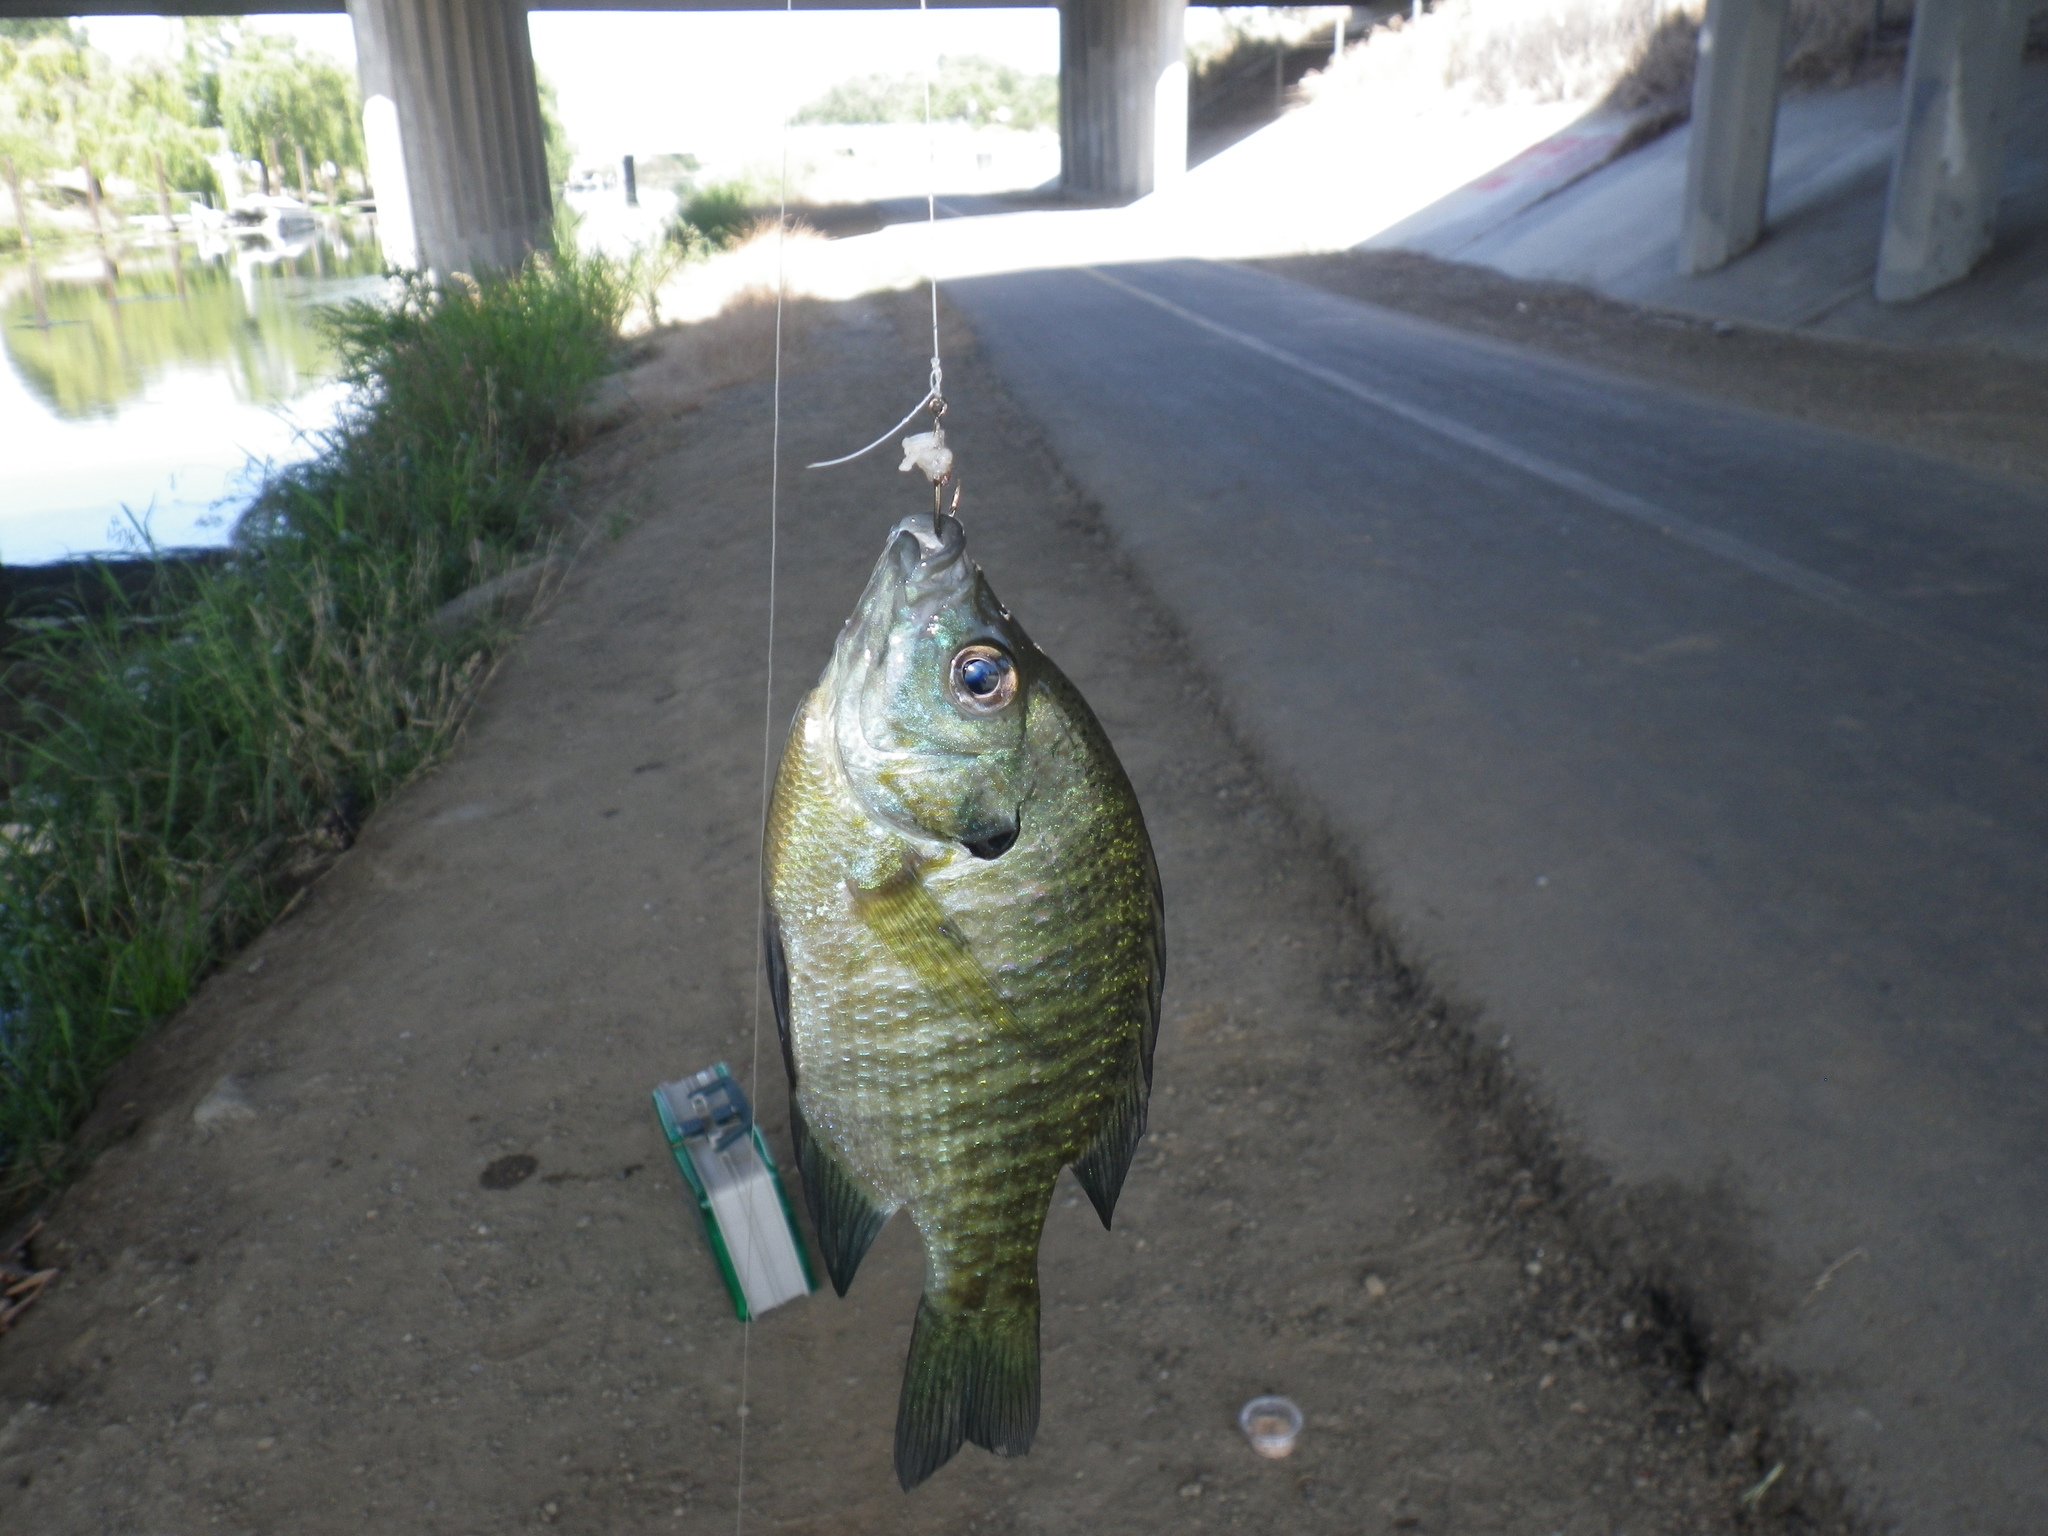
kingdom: Animalia
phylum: Chordata
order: Perciformes
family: Centrarchidae
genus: Lepomis
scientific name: Lepomis macrochirus
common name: Bluegill
